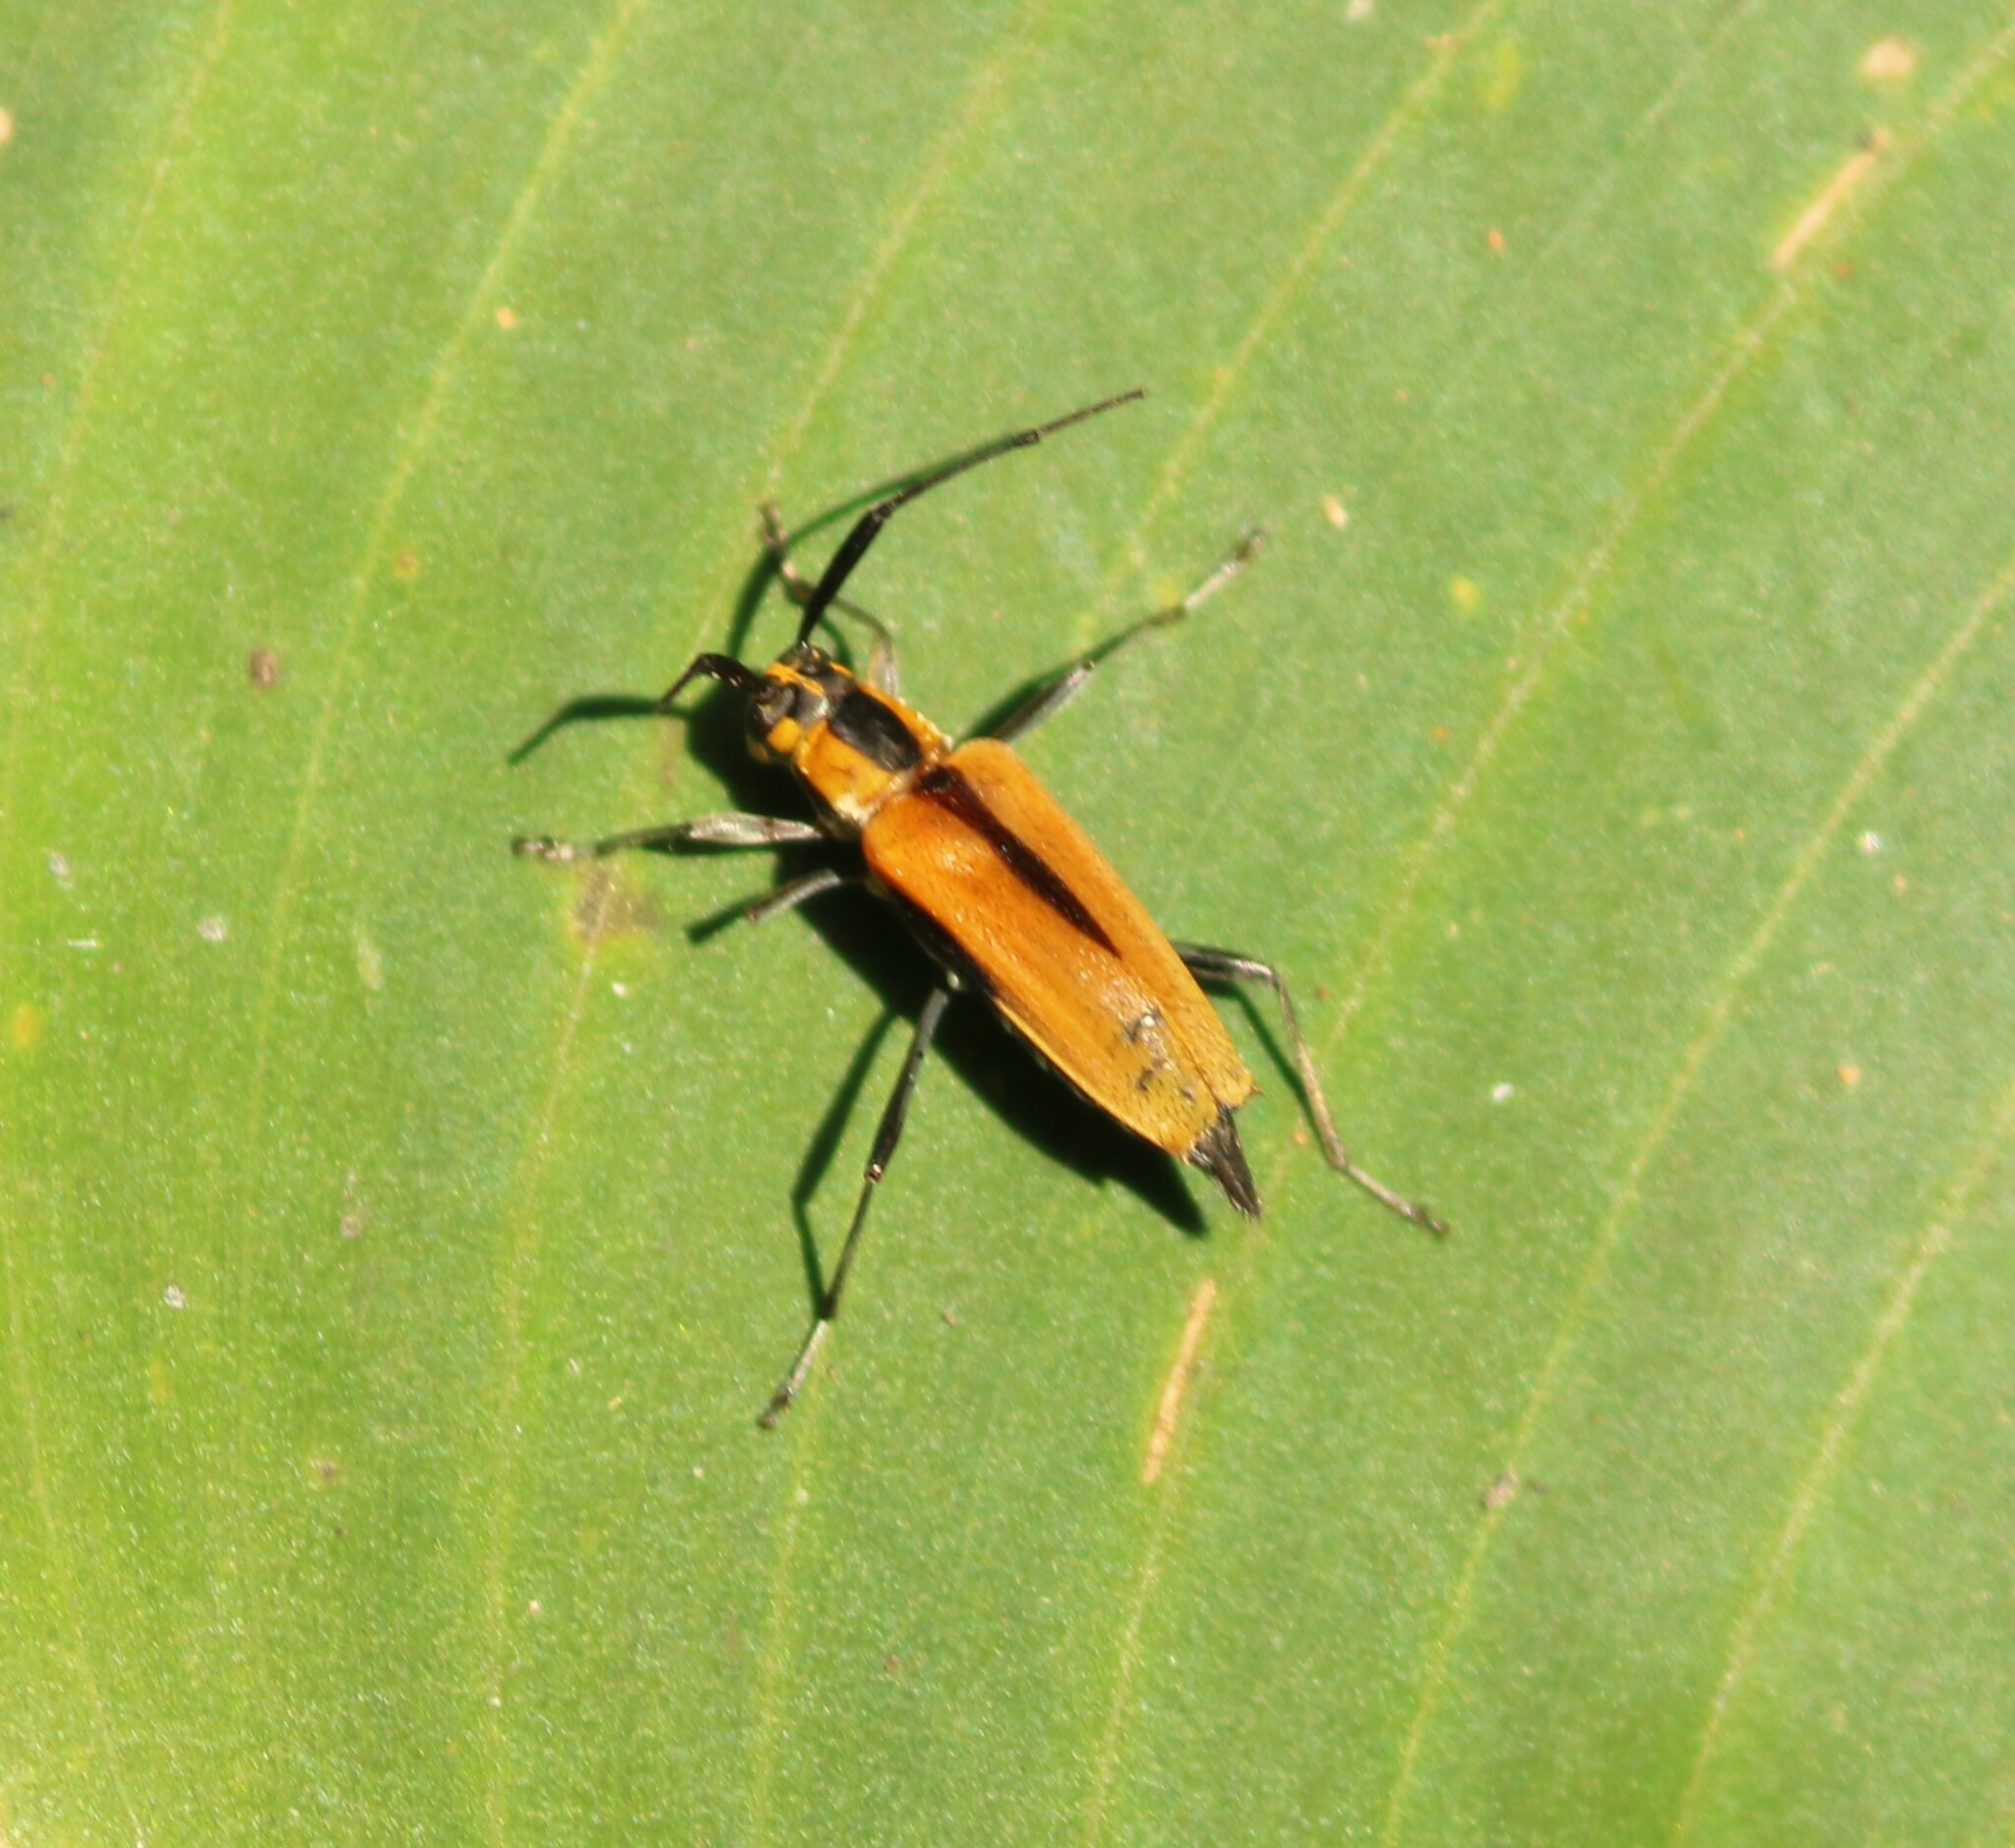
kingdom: Animalia
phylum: Arthropoda
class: Insecta
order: Coleoptera
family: Cerambycidae
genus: Carterica
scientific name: Carterica pygmaea
